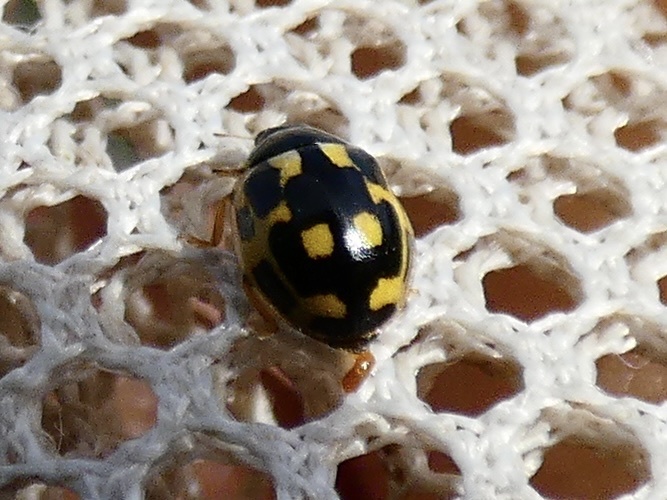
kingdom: Animalia
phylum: Arthropoda
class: Insecta
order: Coleoptera
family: Coccinellidae
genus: Propylaea
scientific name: Propylaea quatuordecimpunctata
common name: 14-spotted ladybird beetle
